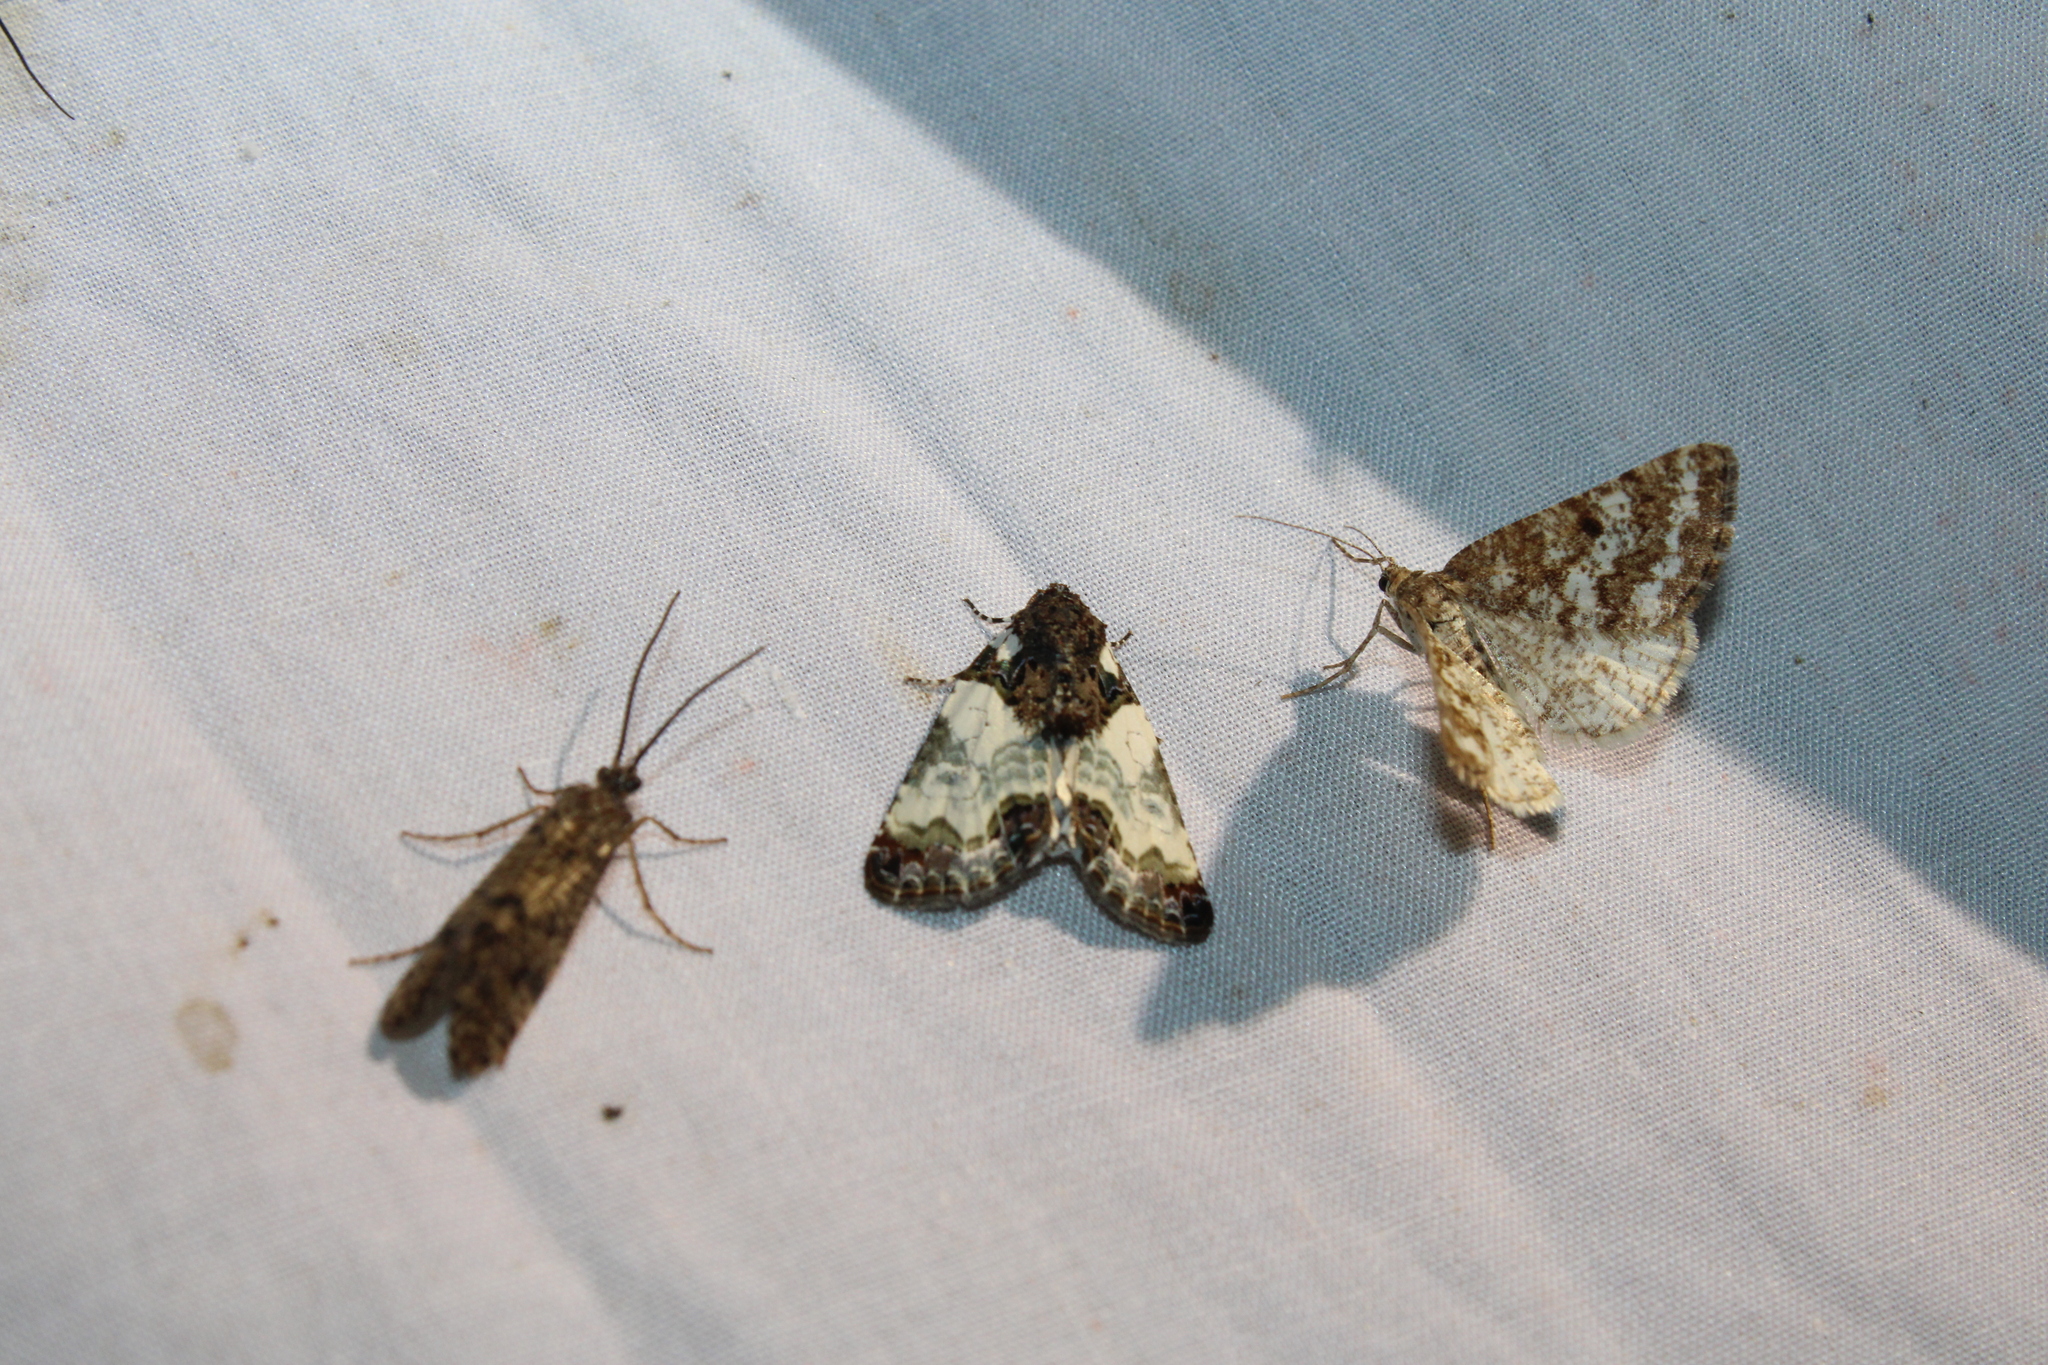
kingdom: Animalia
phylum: Arthropoda
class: Insecta
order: Lepidoptera
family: Noctuidae
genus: Cerma
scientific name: Cerma cerintha
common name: Tufted bird-dropping moth
